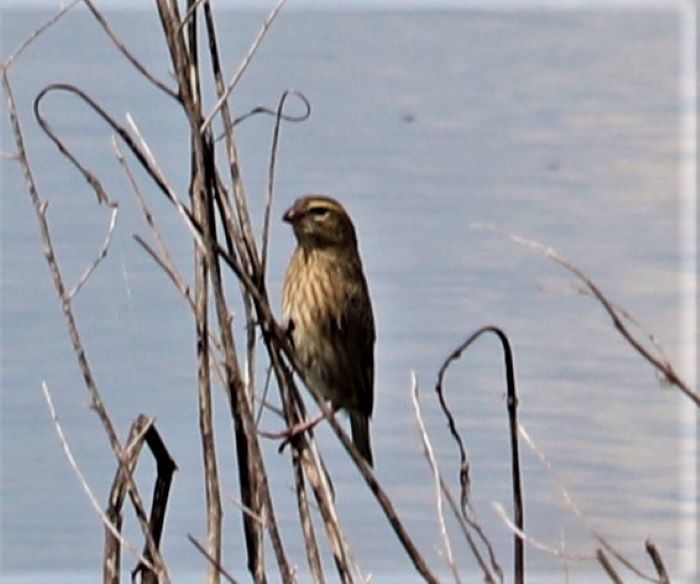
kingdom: Animalia
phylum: Chordata
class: Aves
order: Passeriformes
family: Ploceidae
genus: Euplectes
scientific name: Euplectes orix
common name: Southern red bishop
